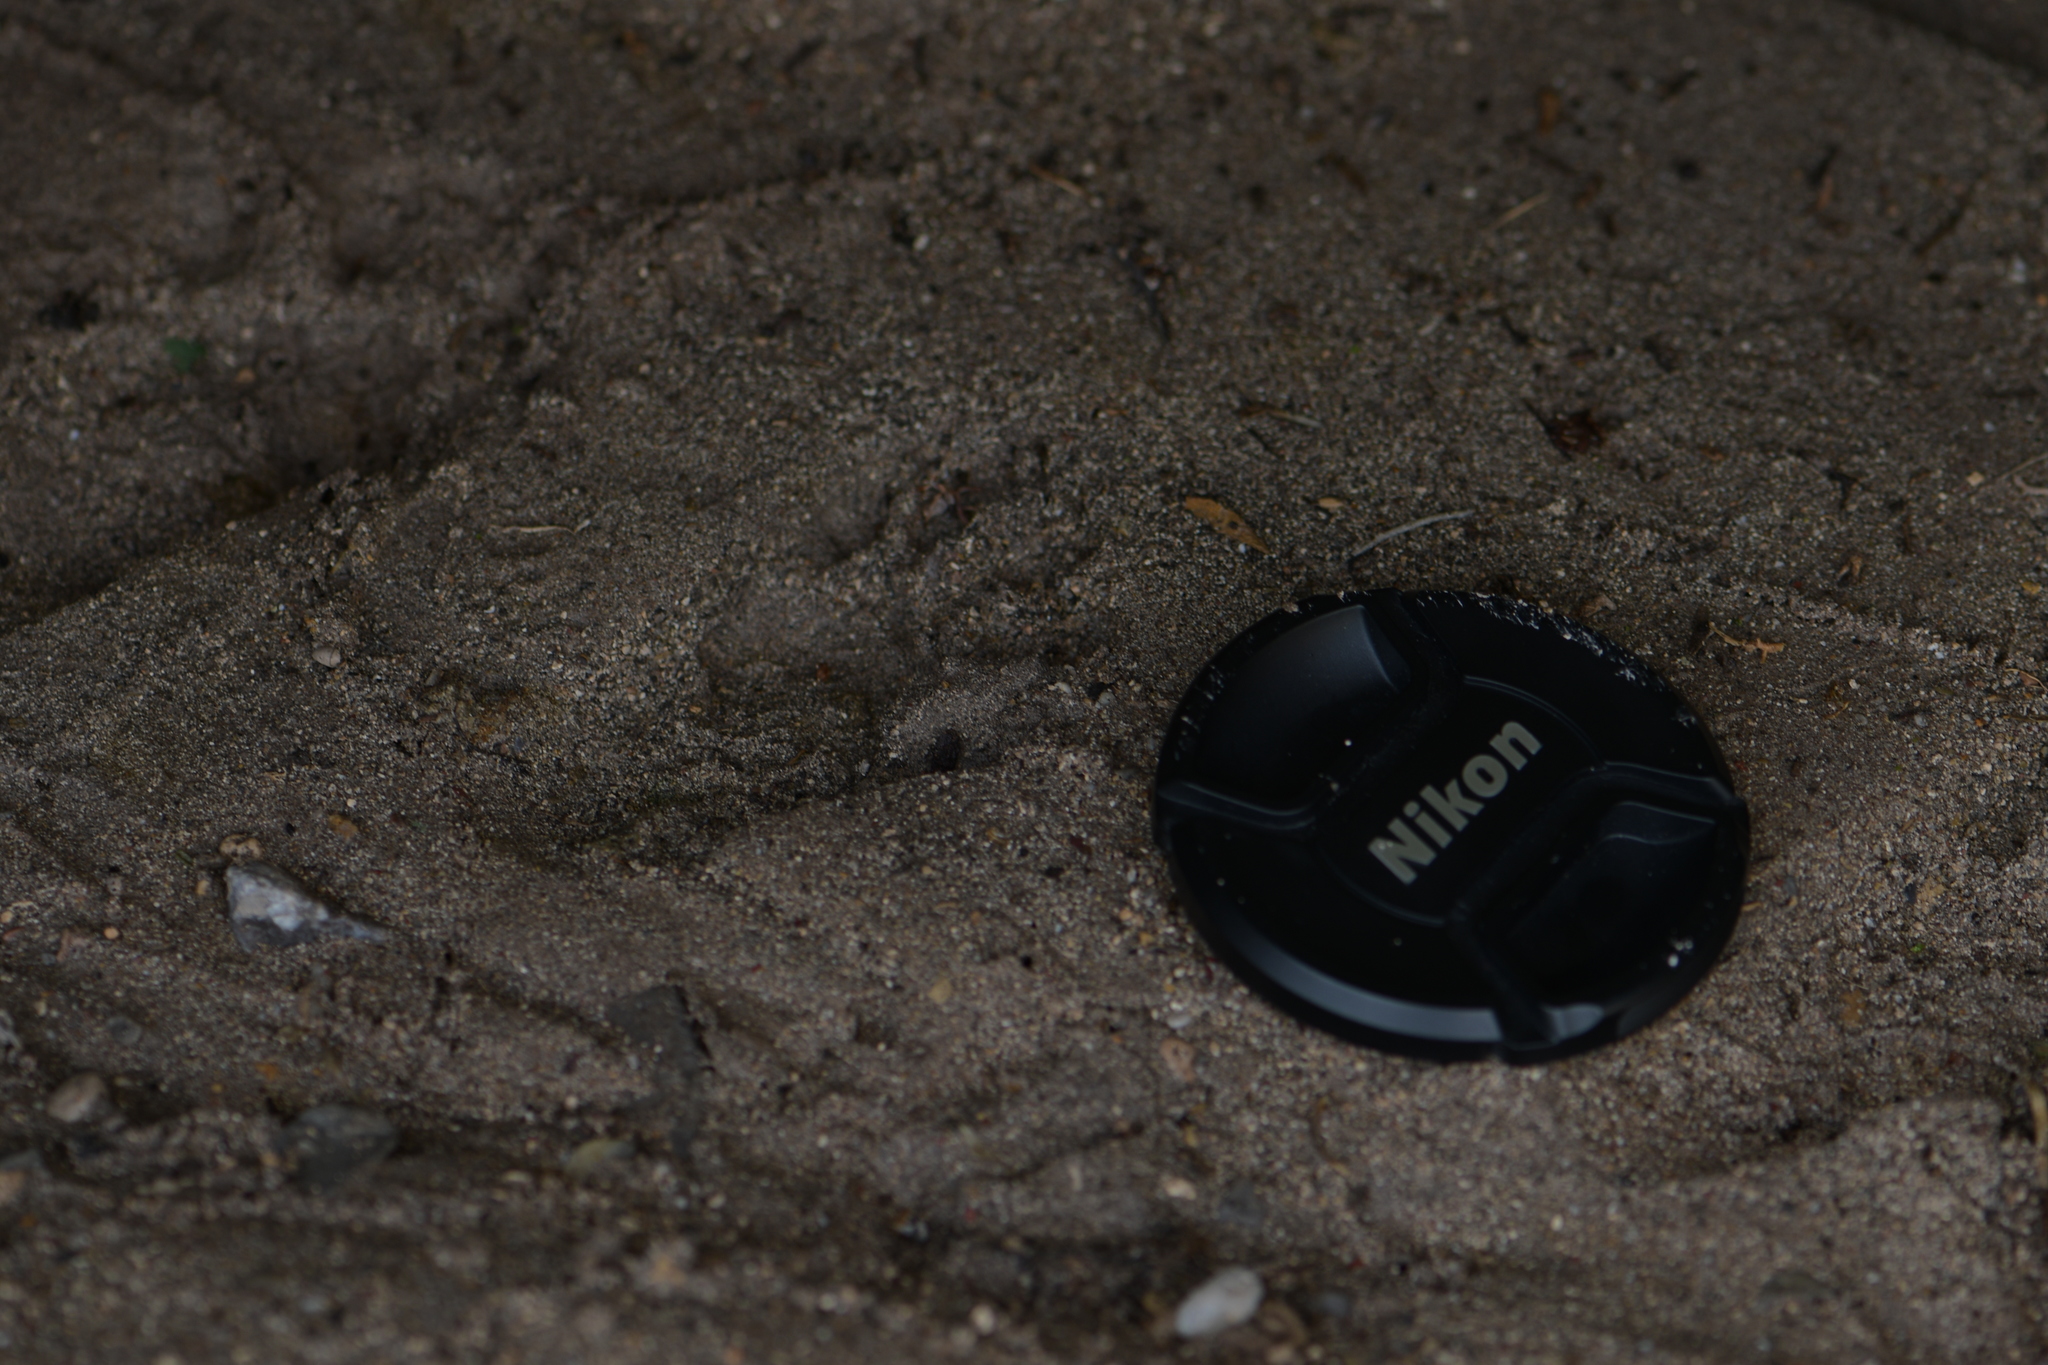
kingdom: Animalia
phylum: Chordata
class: Mammalia
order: Carnivora
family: Procyonidae
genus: Procyon
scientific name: Procyon lotor
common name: Raccoon
